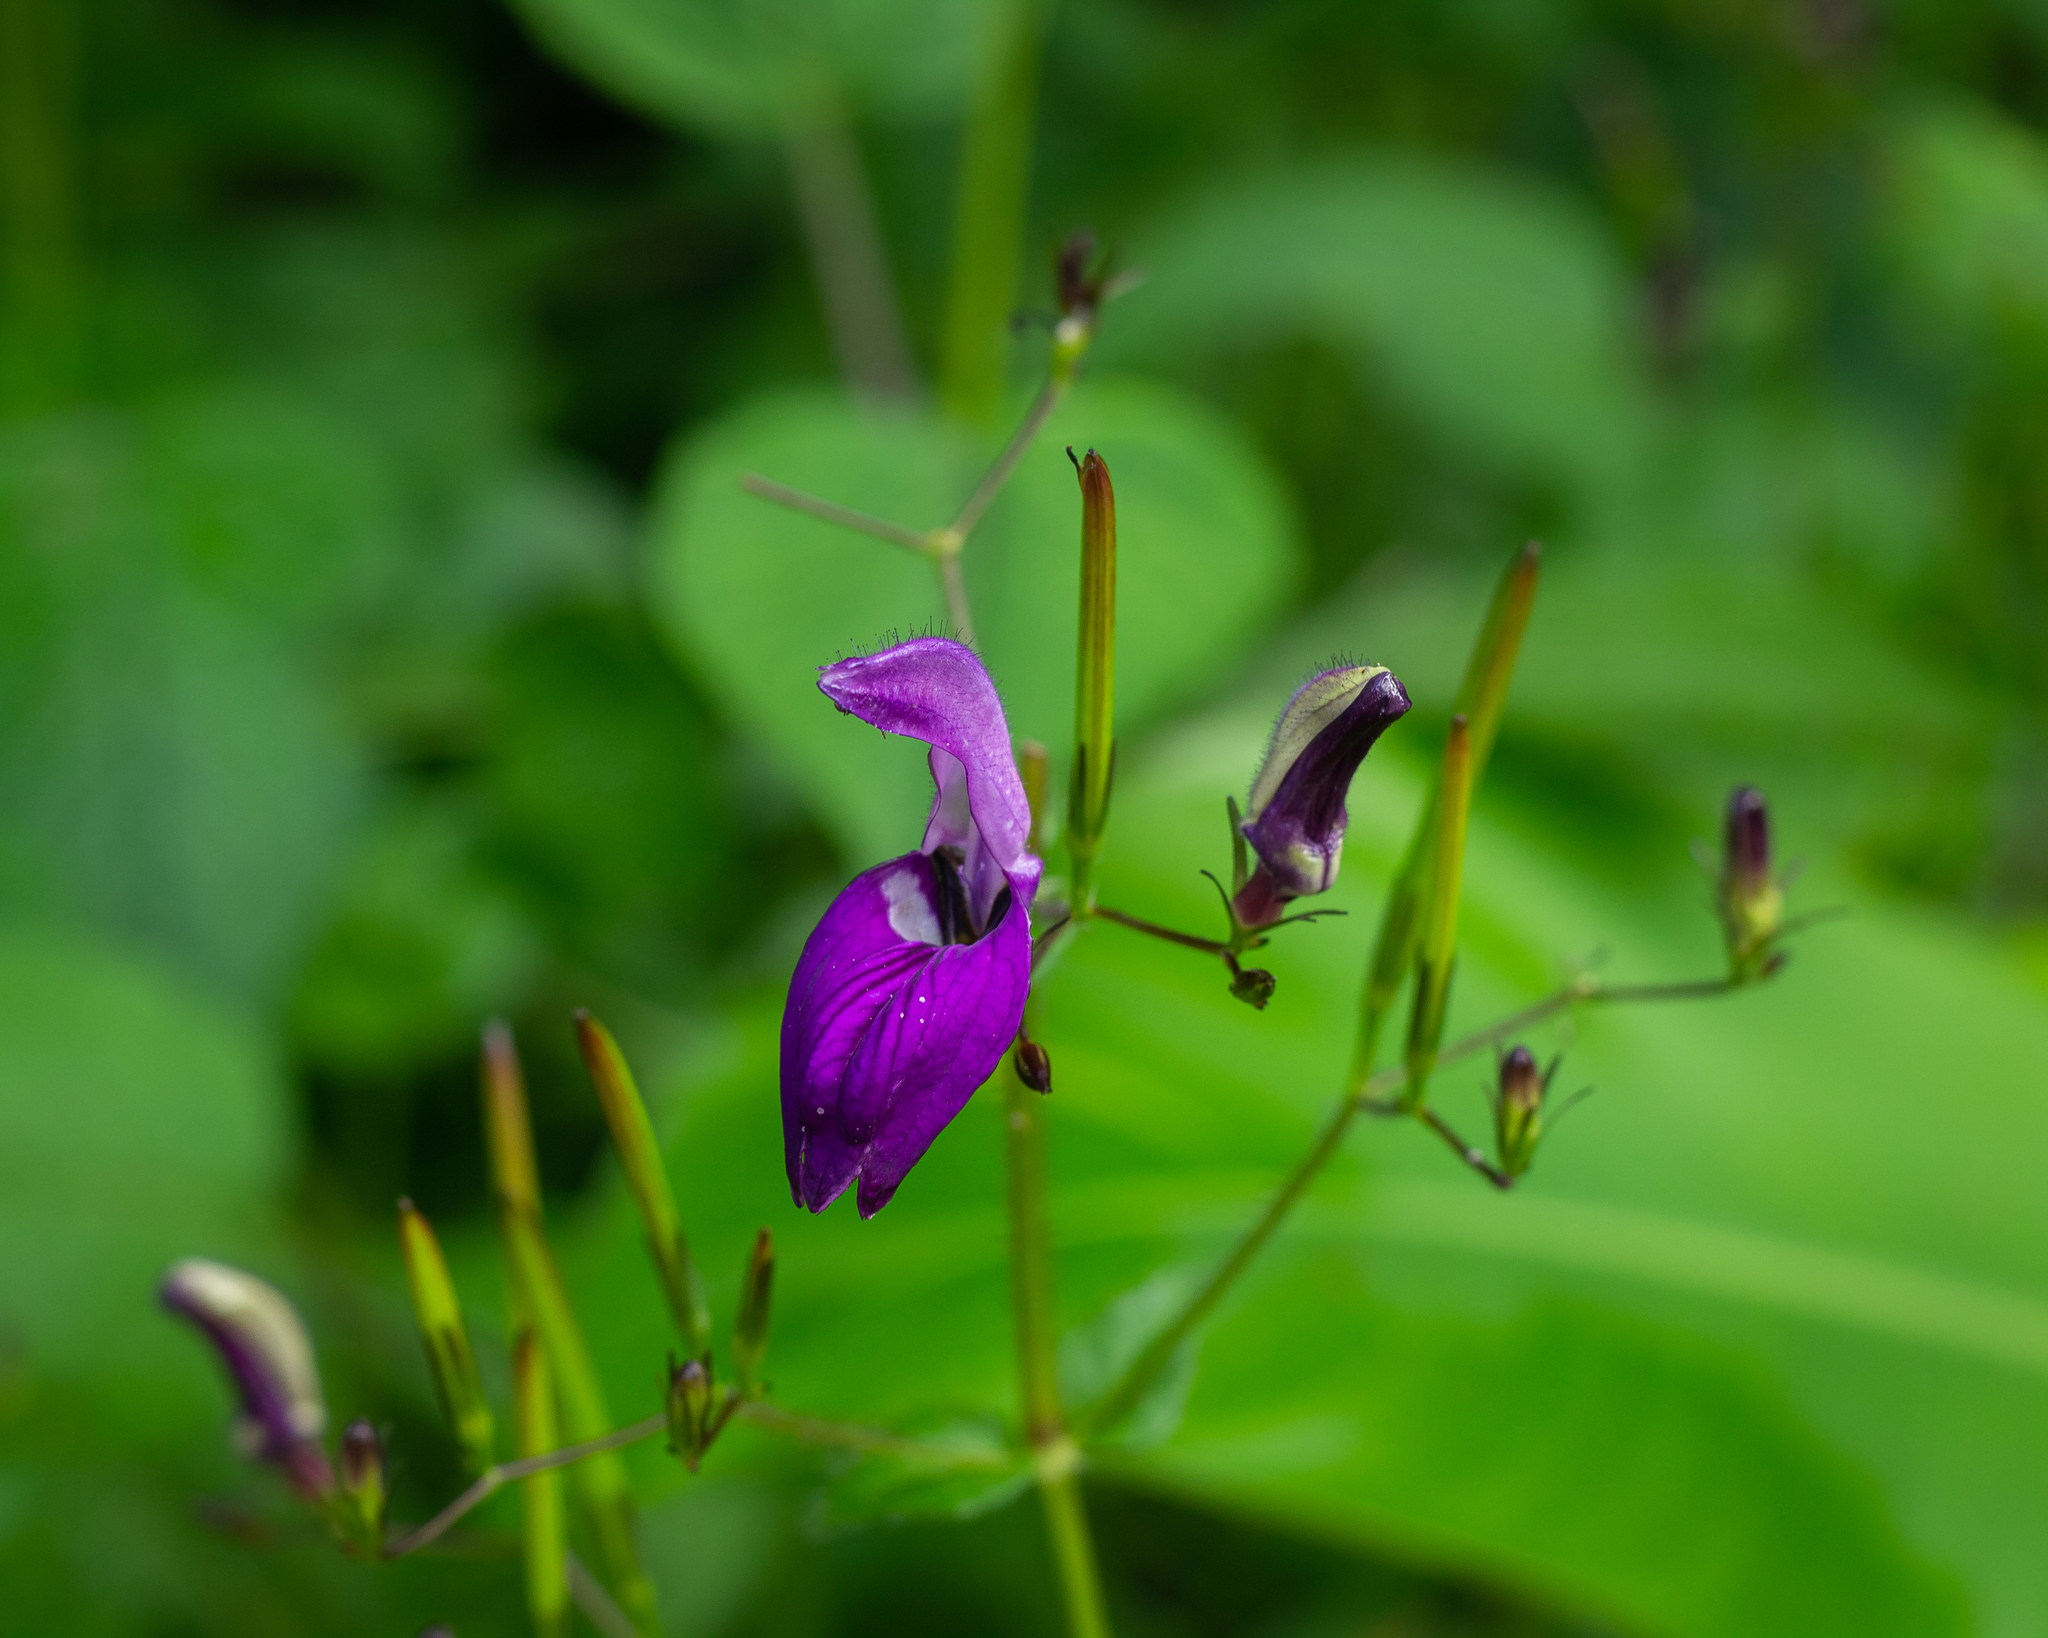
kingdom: Plantae
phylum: Tracheophyta
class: Magnoliopsida
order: Lamiales
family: Acanthaceae
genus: Brillantaisia
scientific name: Brillantaisia lamium
